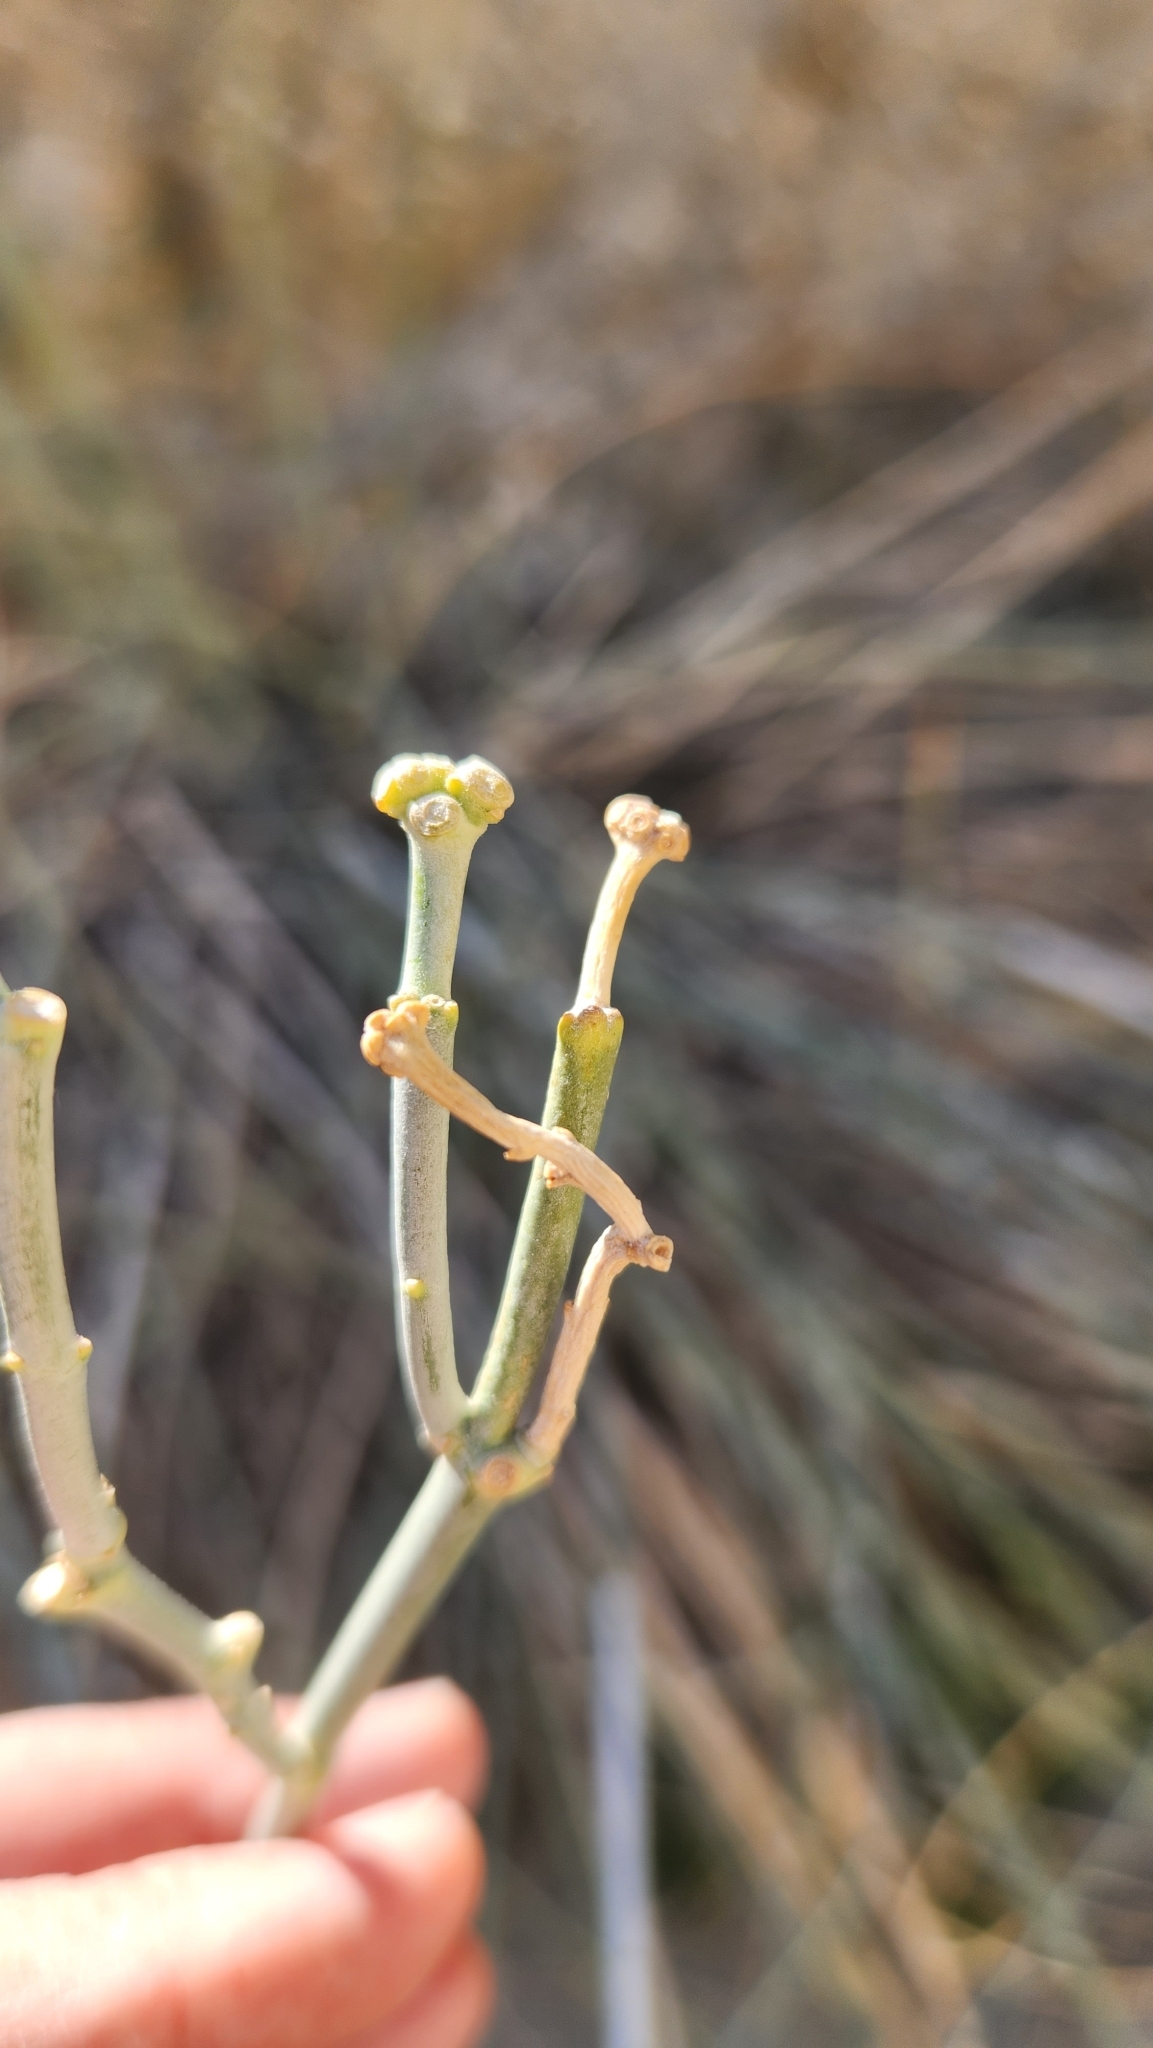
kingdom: Plantae
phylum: Tracheophyta
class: Magnoliopsida
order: Gentianales
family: Apocynaceae
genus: Asclepias
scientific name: Asclepias subulata
